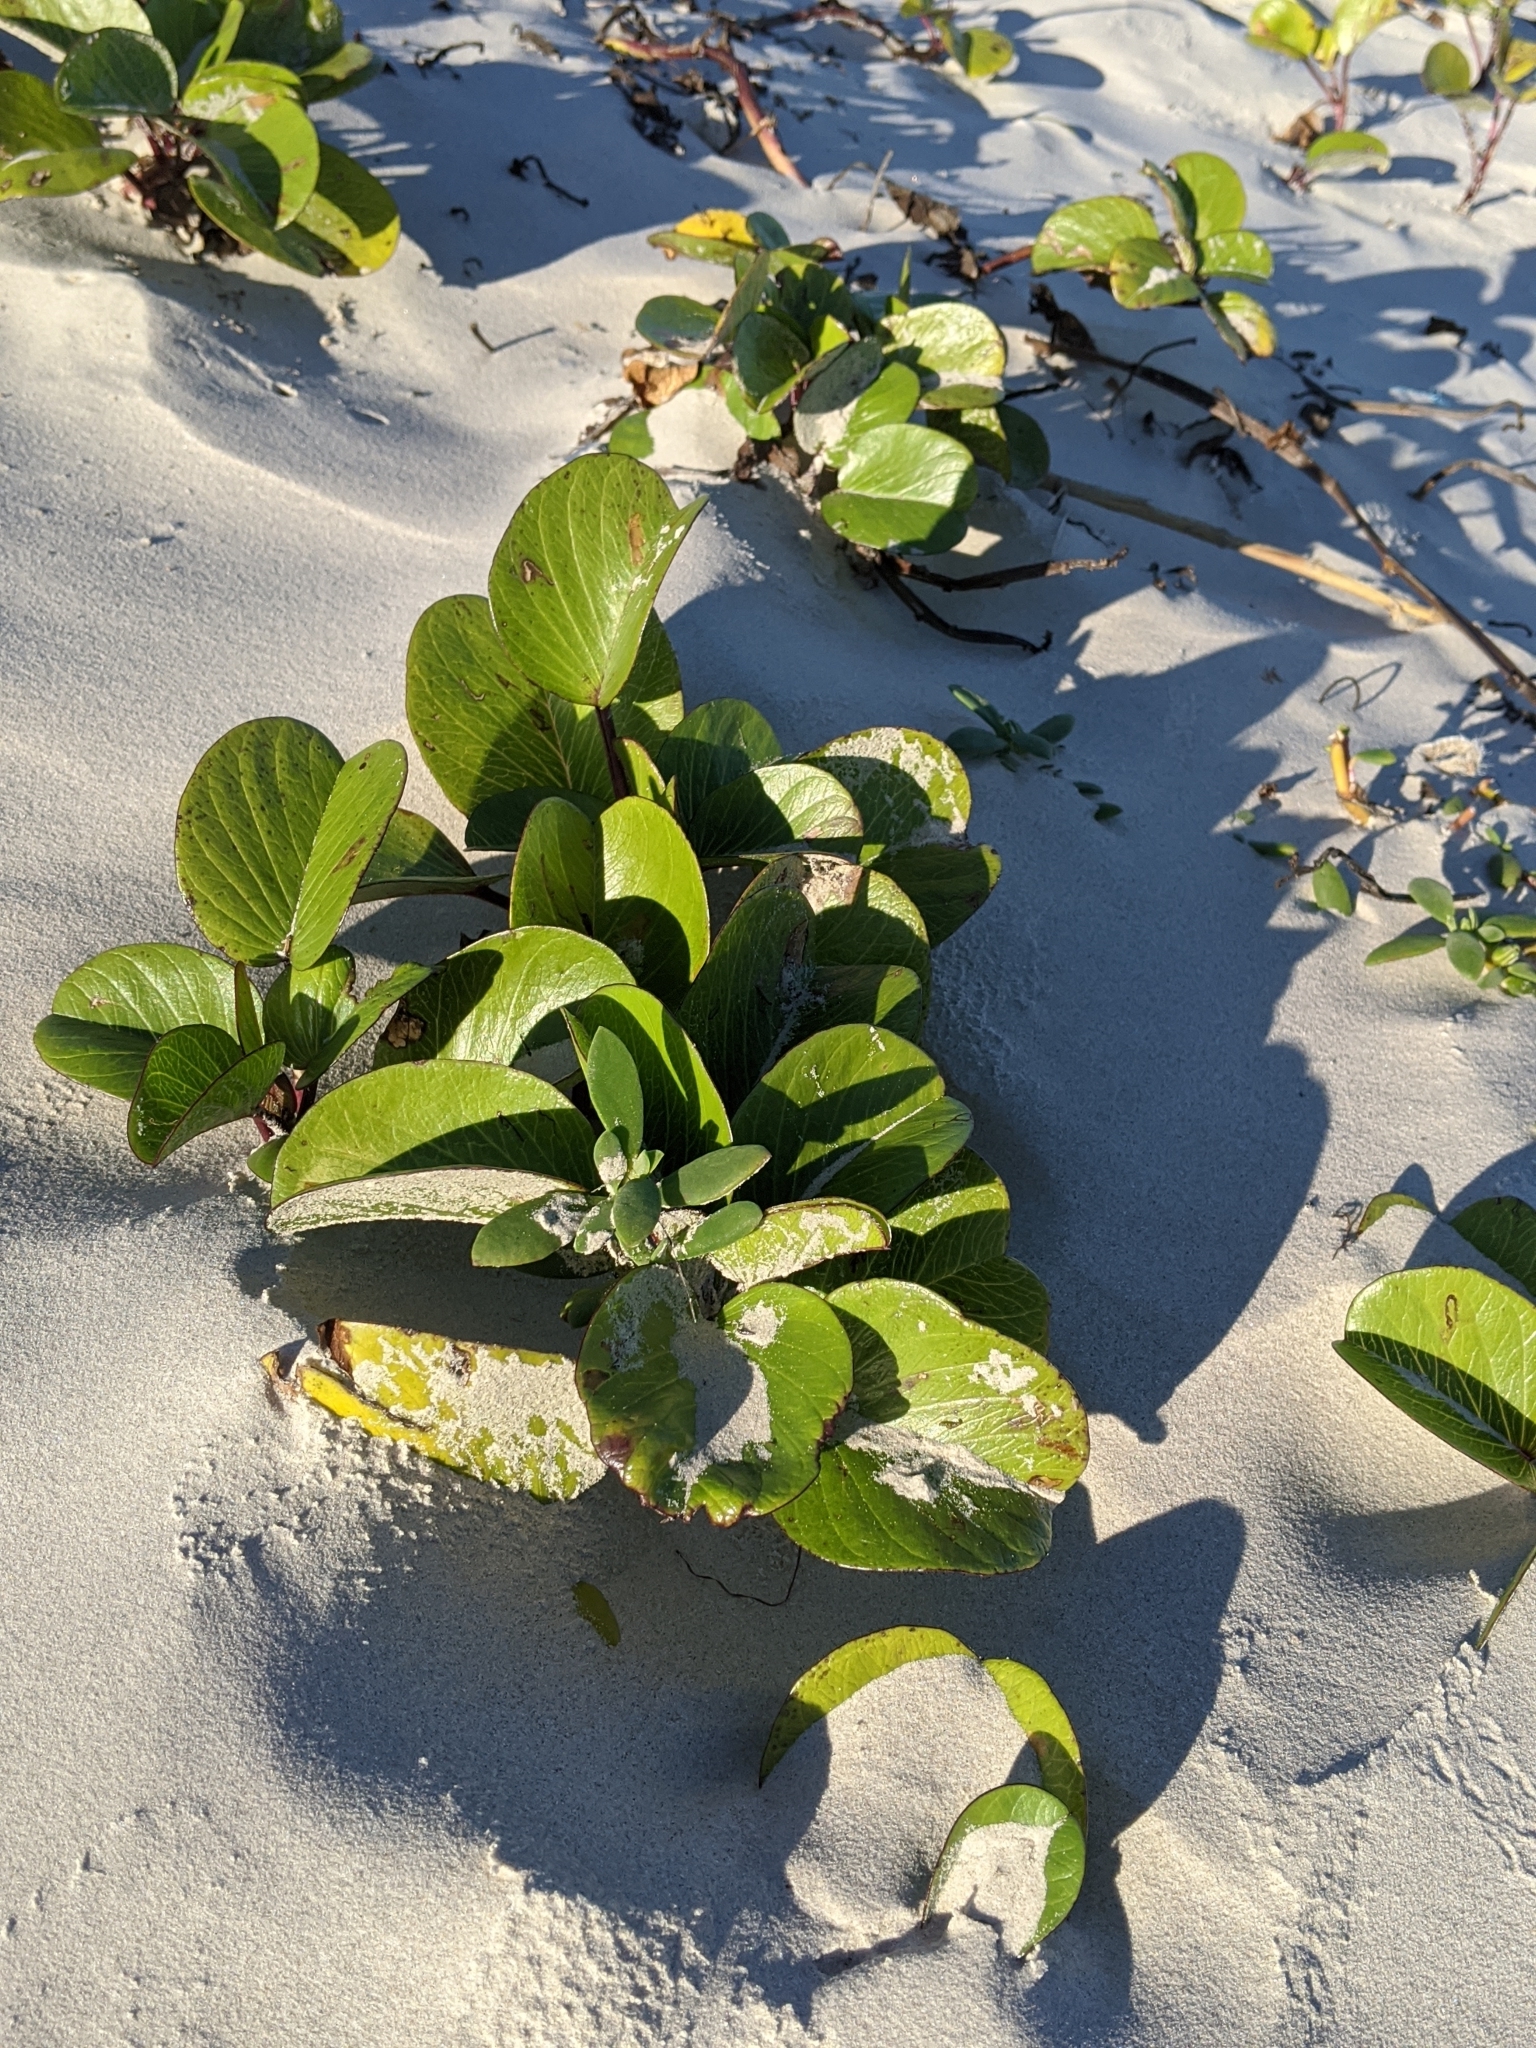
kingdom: Plantae
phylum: Tracheophyta
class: Magnoliopsida
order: Solanales
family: Convolvulaceae
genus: Ipomoea
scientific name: Ipomoea pes-caprae
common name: Beach morning glory
